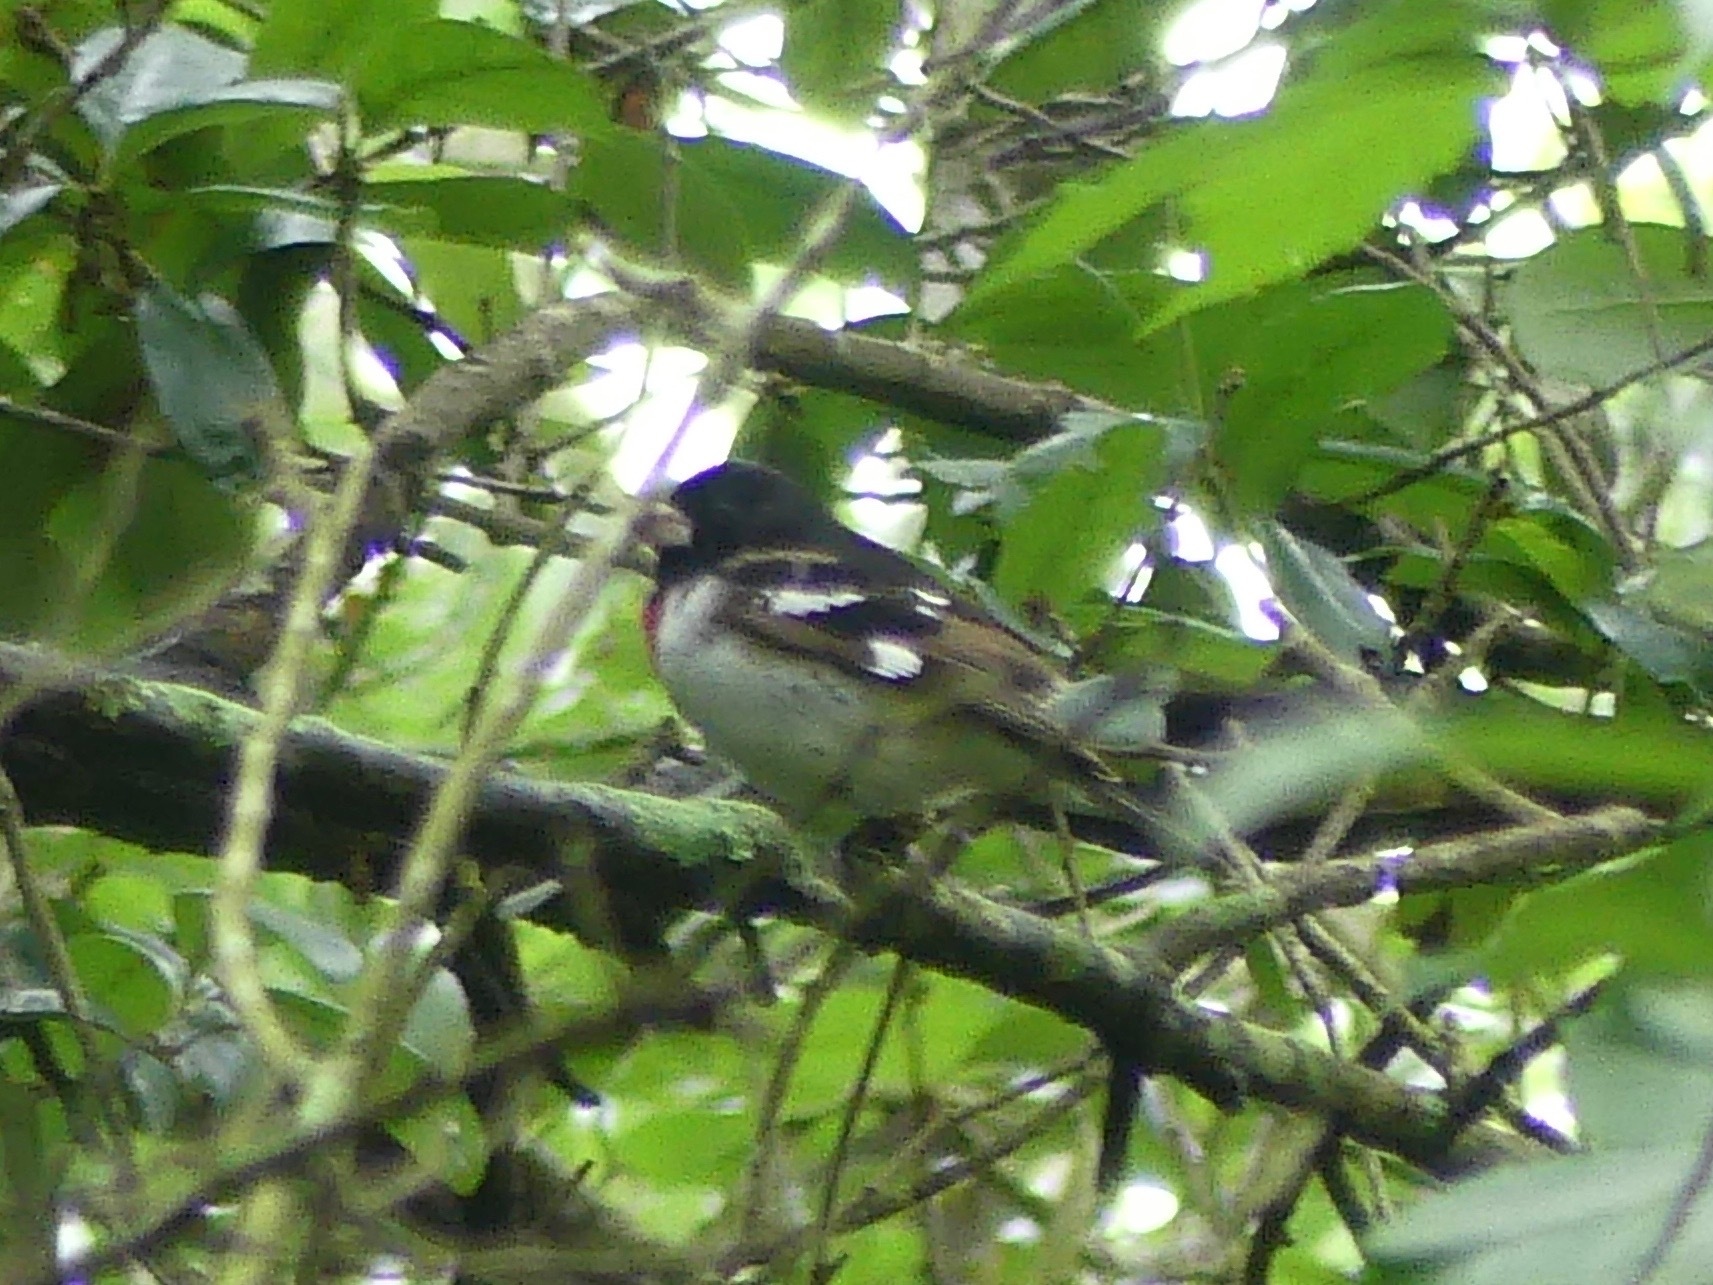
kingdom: Animalia
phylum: Chordata
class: Aves
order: Passeriformes
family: Cardinalidae
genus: Pheucticus
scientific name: Pheucticus ludovicianus
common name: Rose-breasted grosbeak
